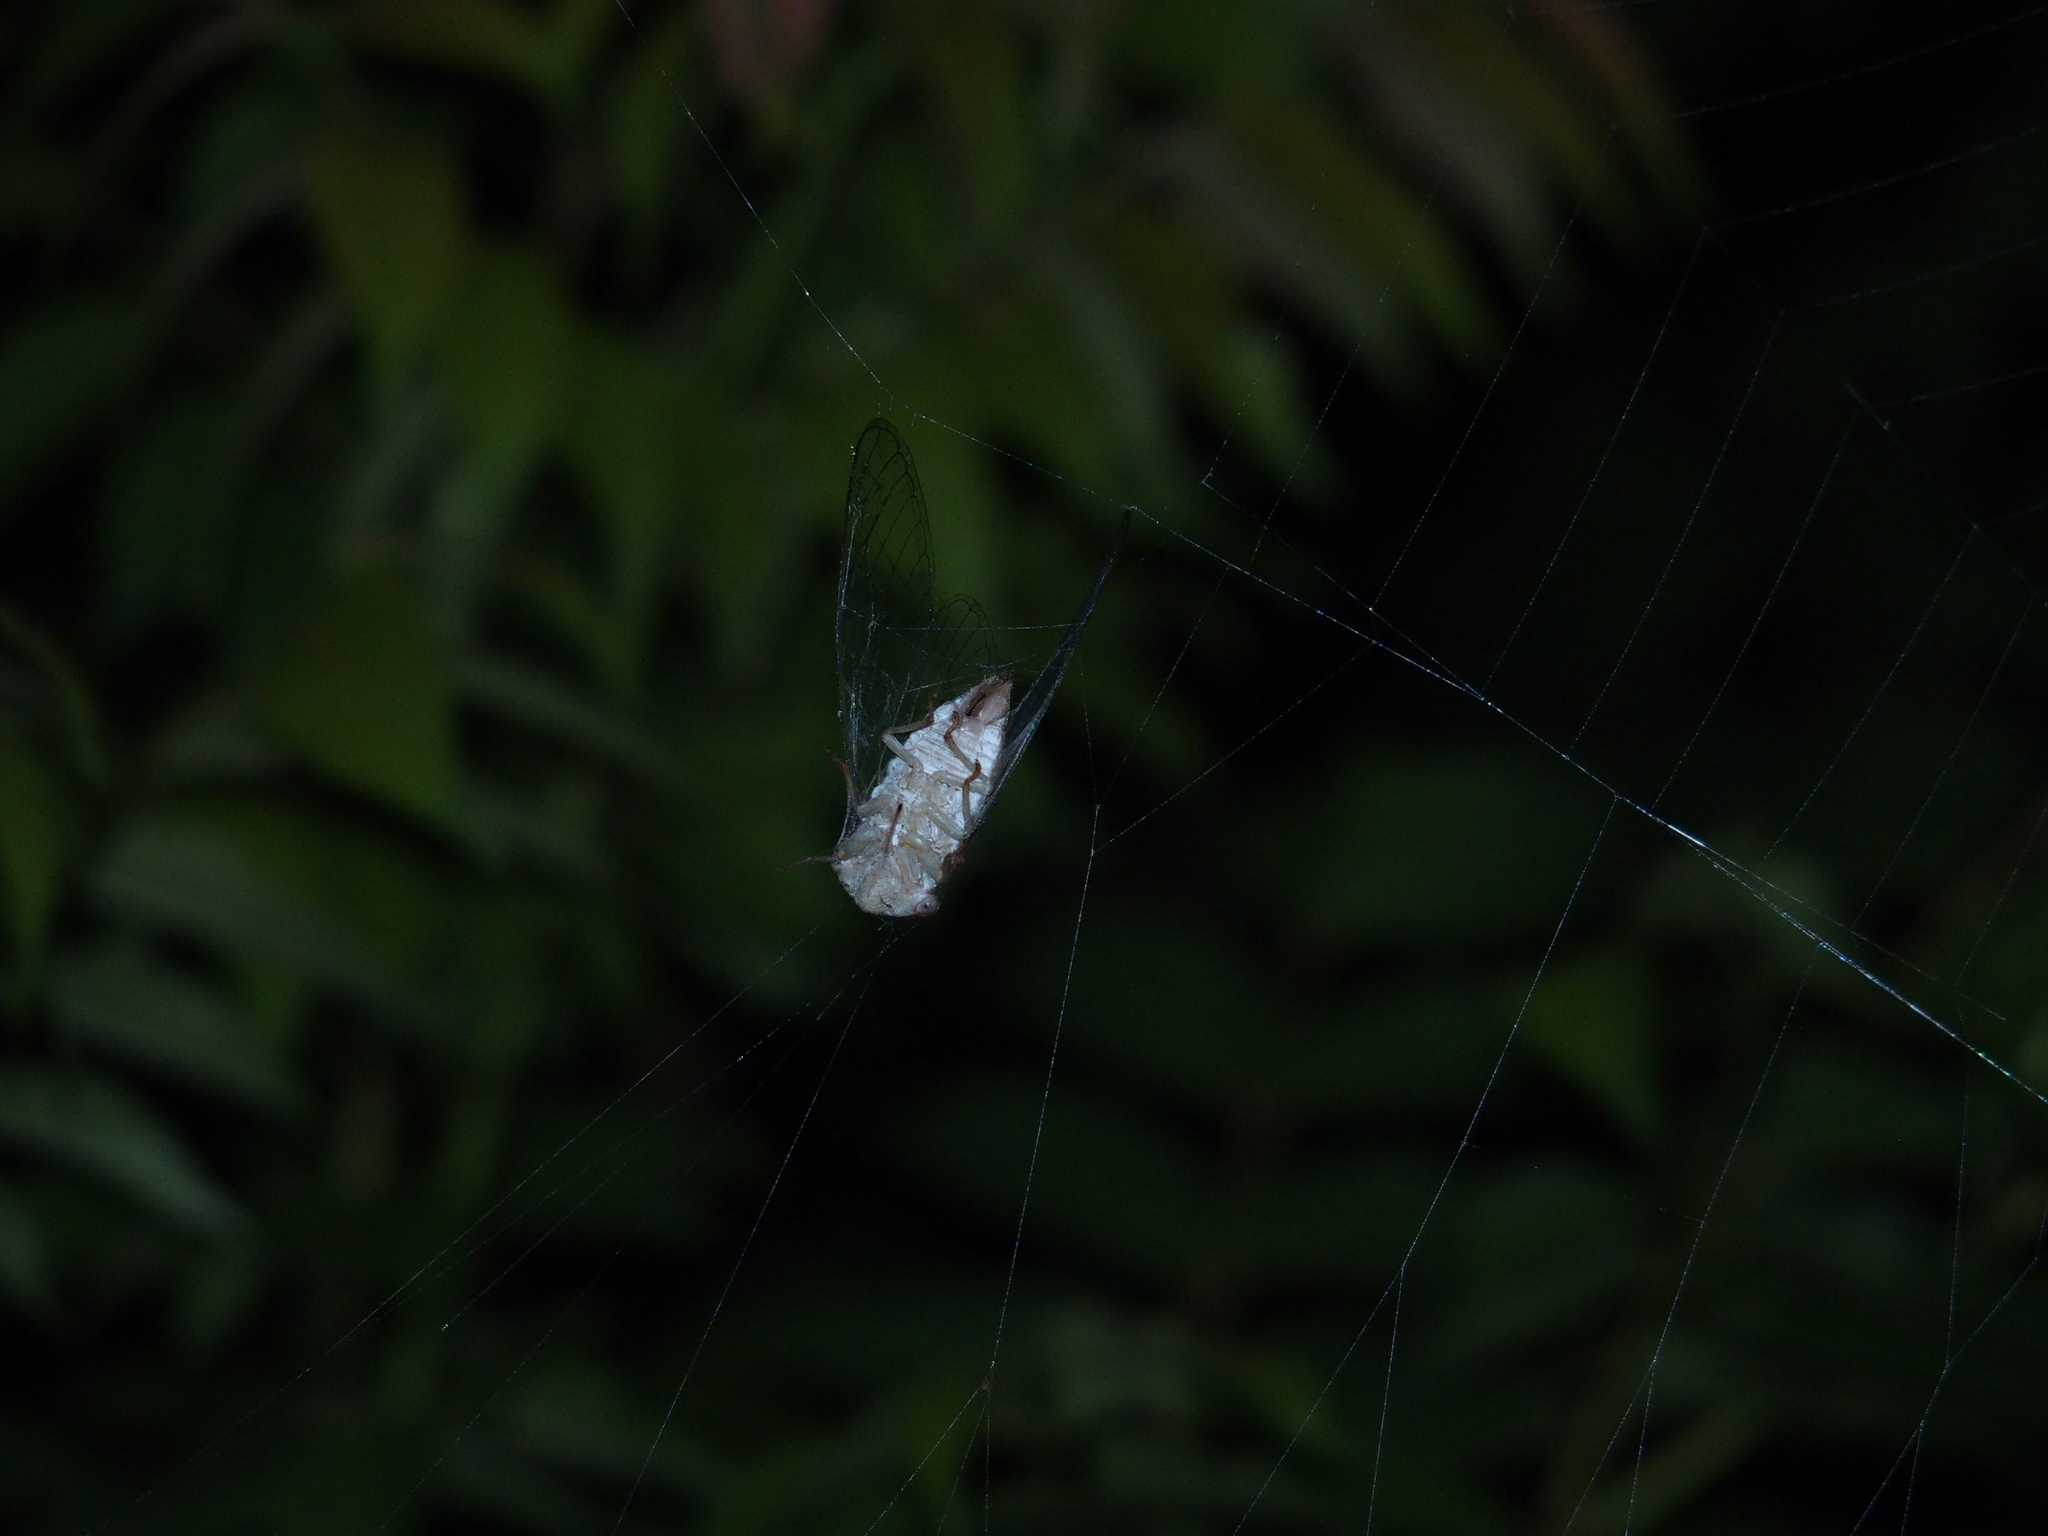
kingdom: Animalia
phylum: Arthropoda
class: Insecta
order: Hemiptera
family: Cicadidae
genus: Chremistica
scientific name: Chremistica ochracea
